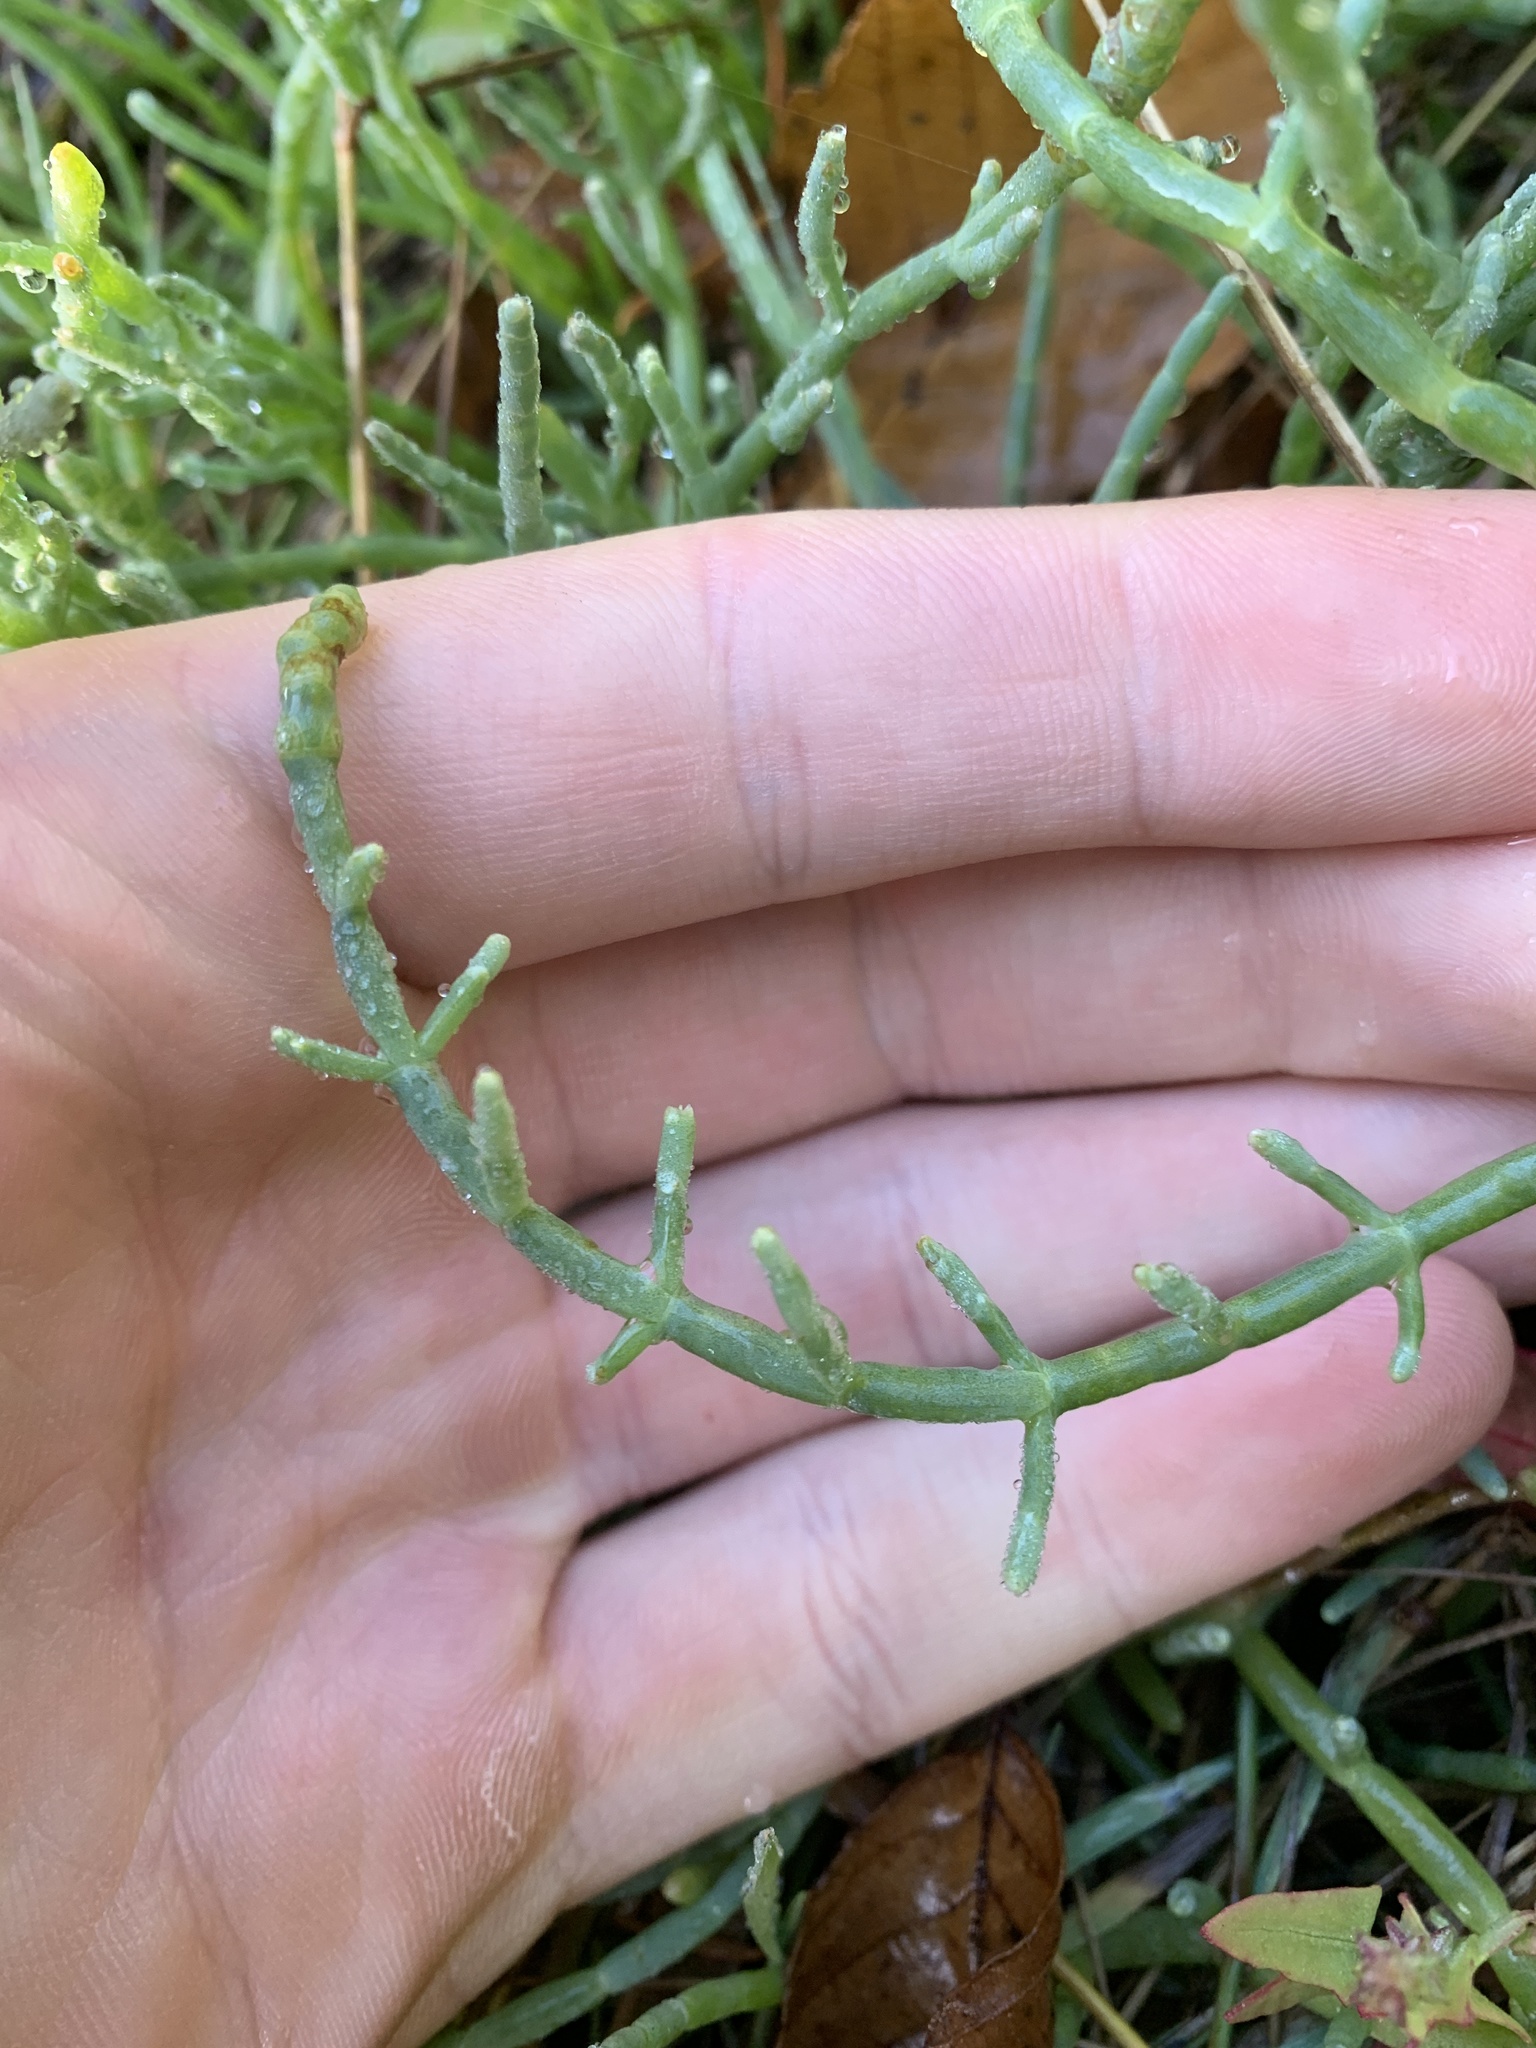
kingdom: Plantae
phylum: Tracheophyta
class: Magnoliopsida
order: Caryophyllales
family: Amaranthaceae
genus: Salicornia
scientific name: Salicornia pacifica
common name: Pacific glasswort
